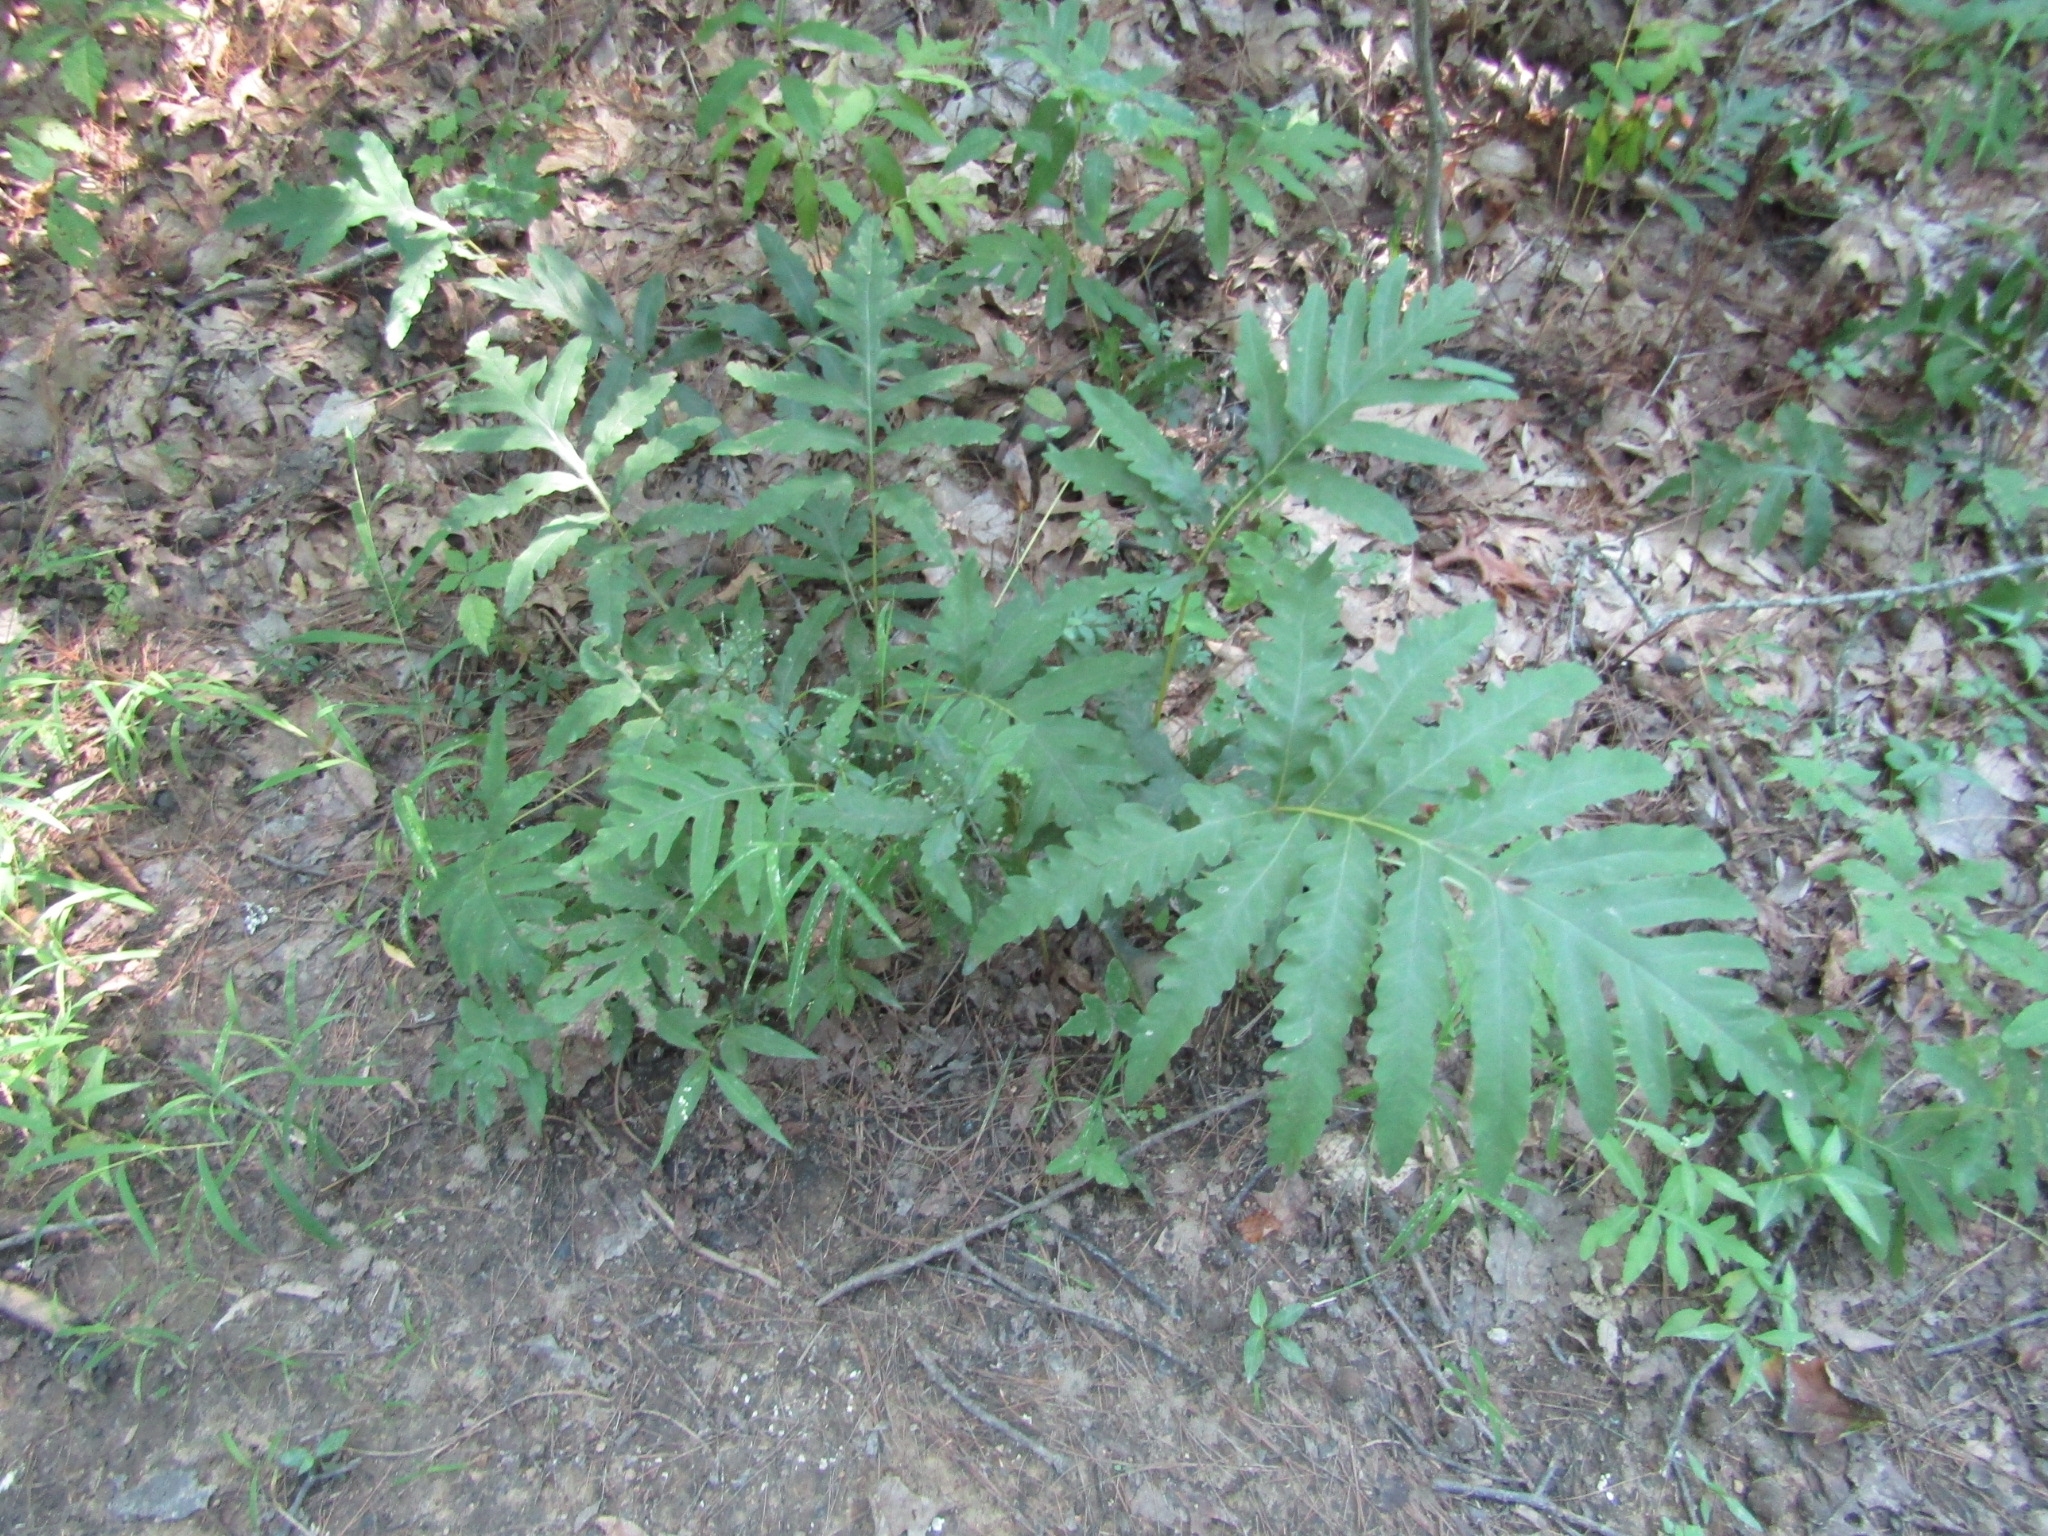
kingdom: Plantae
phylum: Tracheophyta
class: Polypodiopsida
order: Polypodiales
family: Onocleaceae
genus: Onoclea
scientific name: Onoclea sensibilis
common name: Sensitive fern
